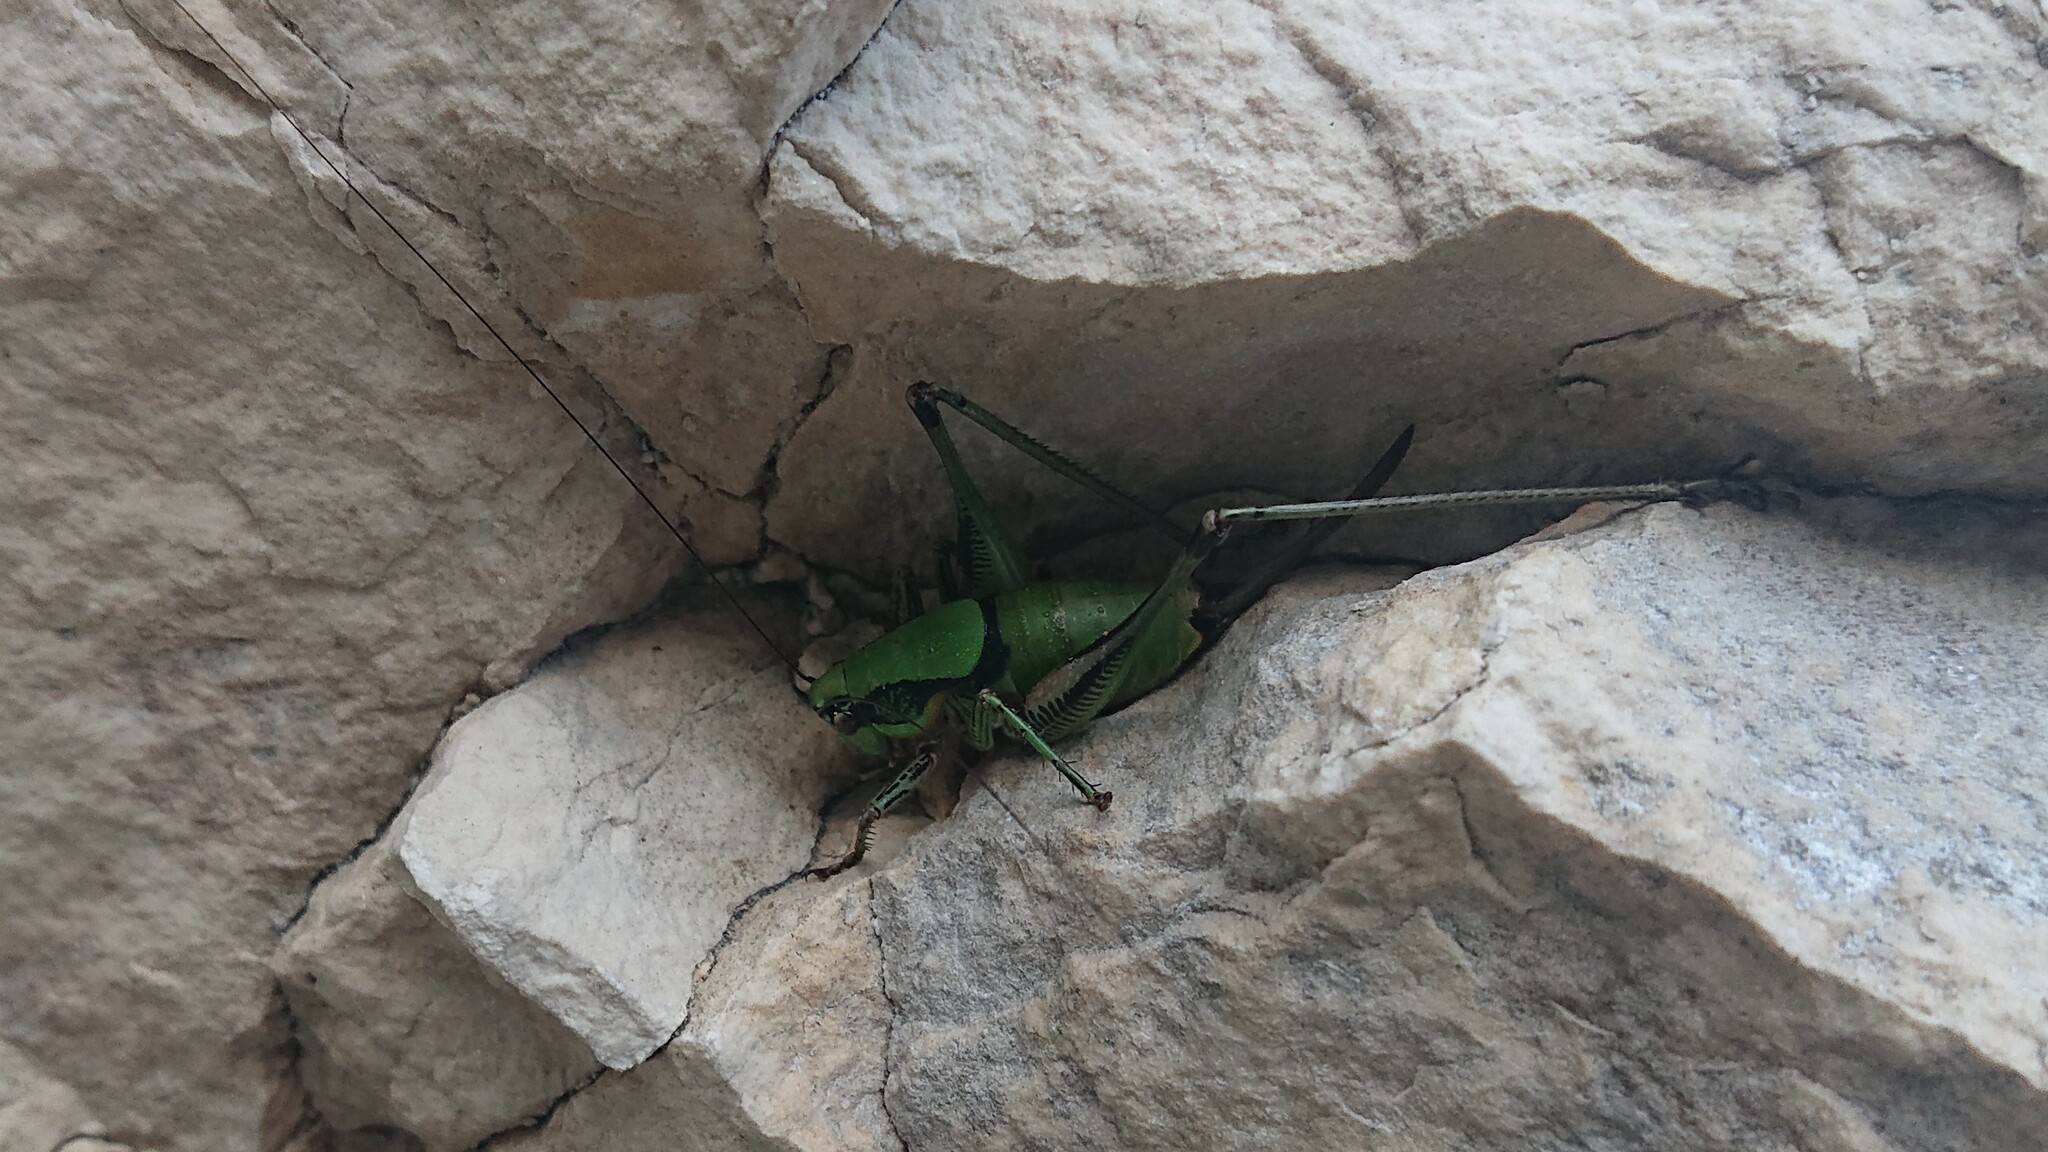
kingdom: Animalia
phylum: Arthropoda
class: Insecta
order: Orthoptera
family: Tettigoniidae
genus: Eupholidoptera
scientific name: Eupholidoptera schmidti
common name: Schmidt's marbled bush-cricket
